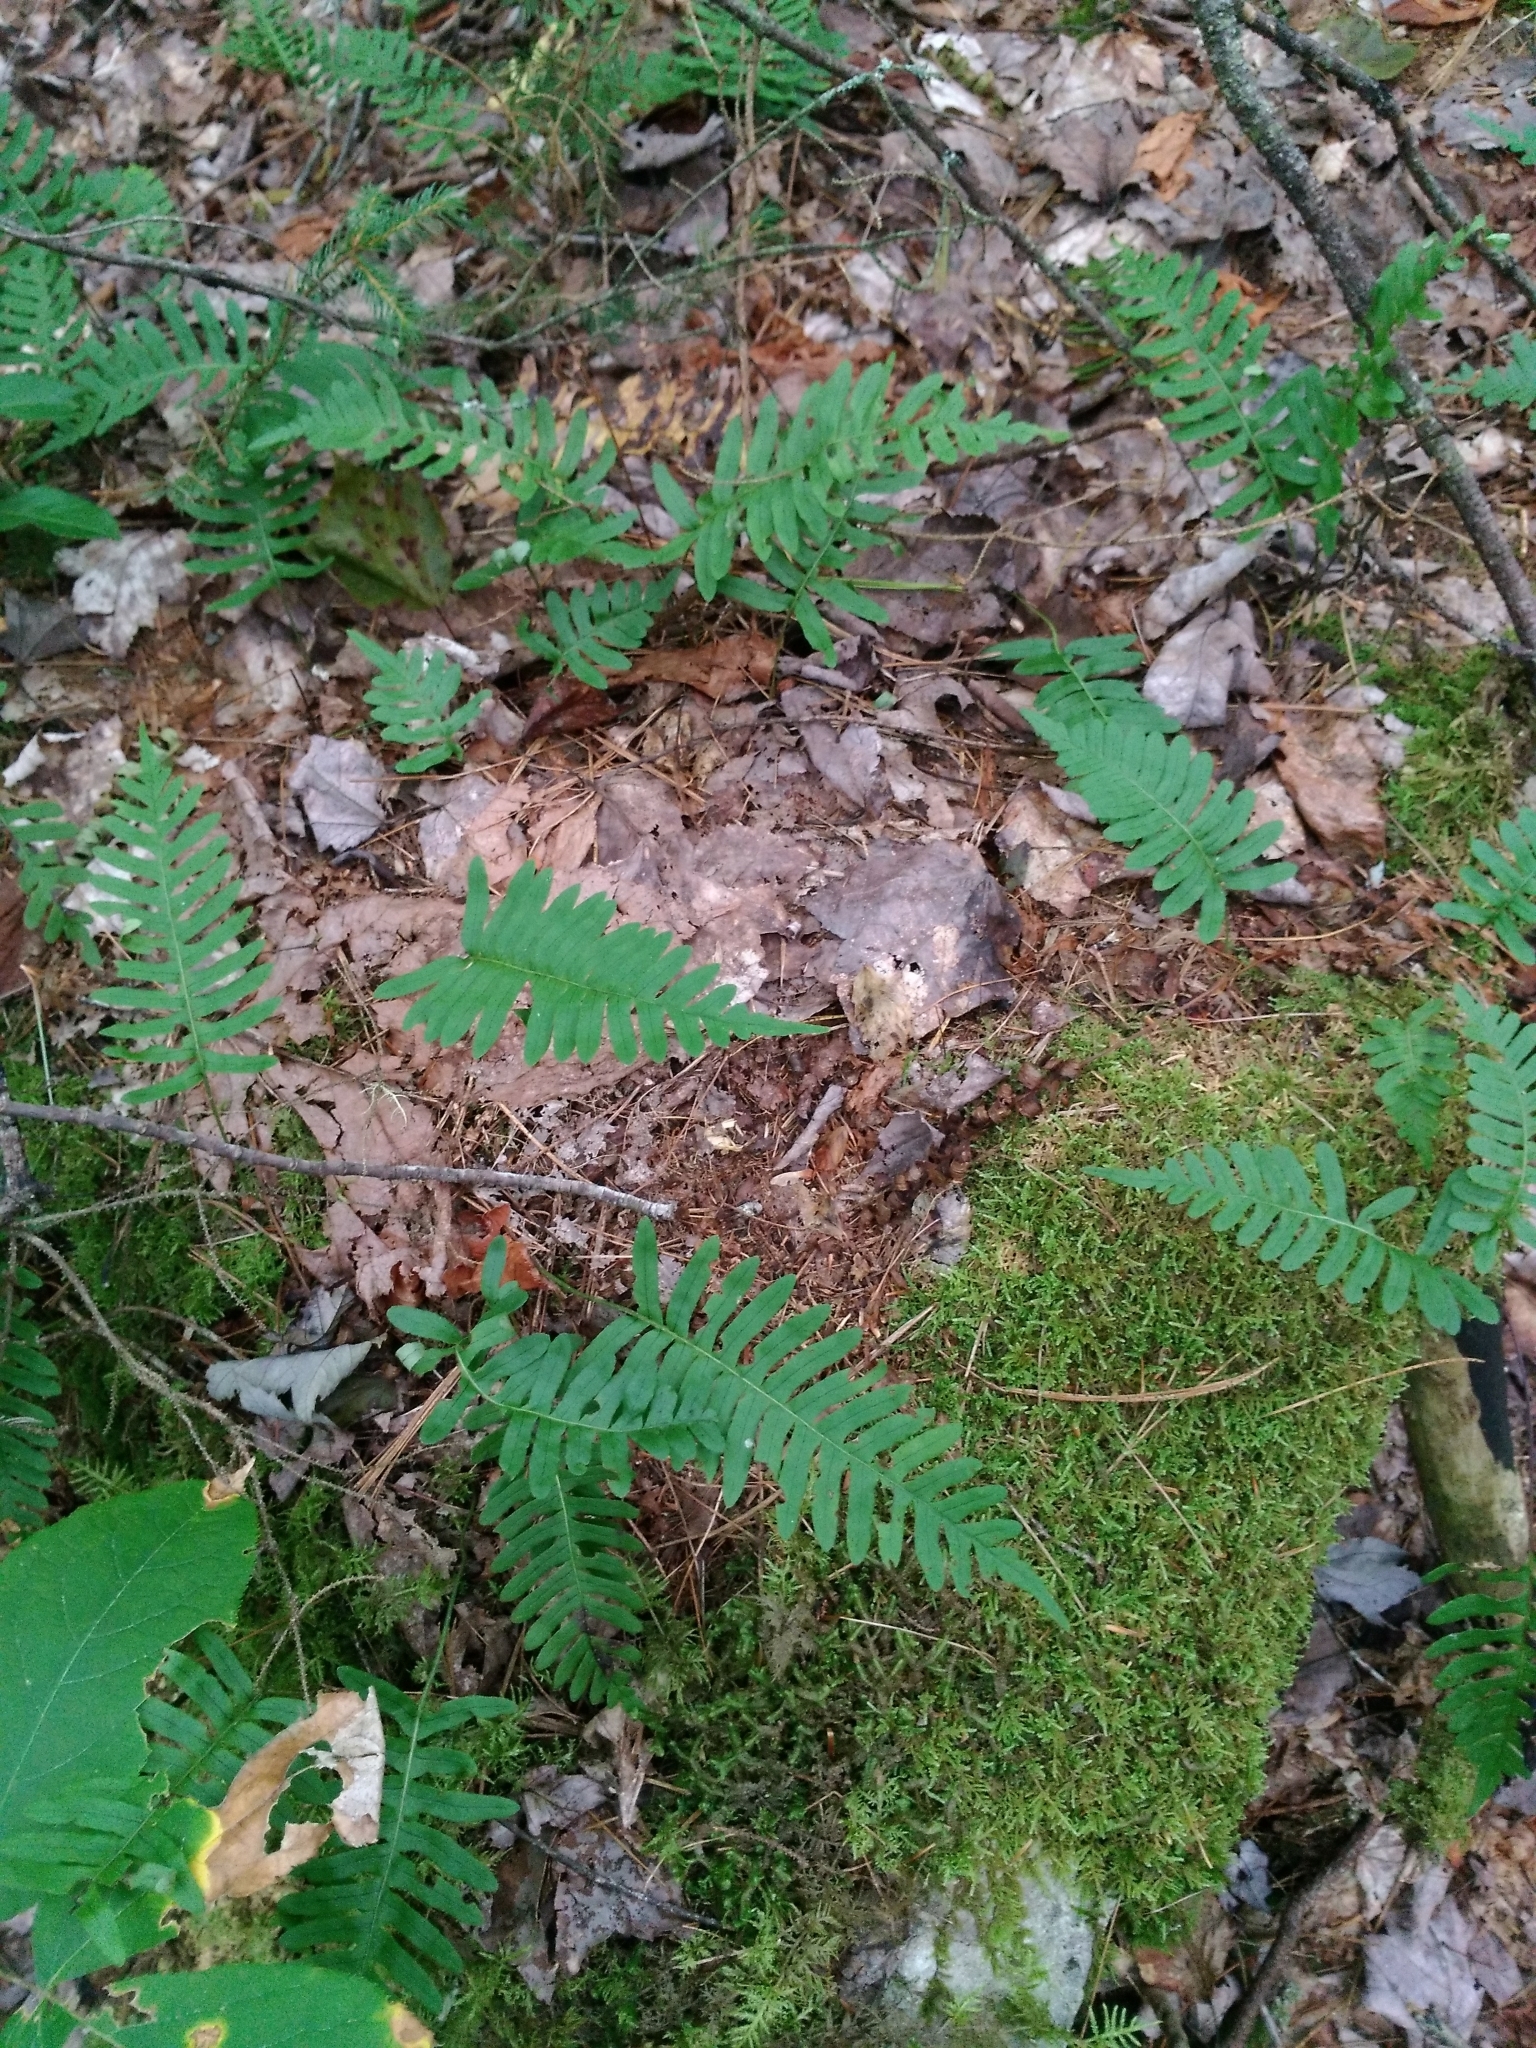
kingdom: Plantae
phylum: Tracheophyta
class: Polypodiopsida
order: Polypodiales
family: Polypodiaceae
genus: Polypodium
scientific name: Polypodium virginianum
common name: American wall fern
